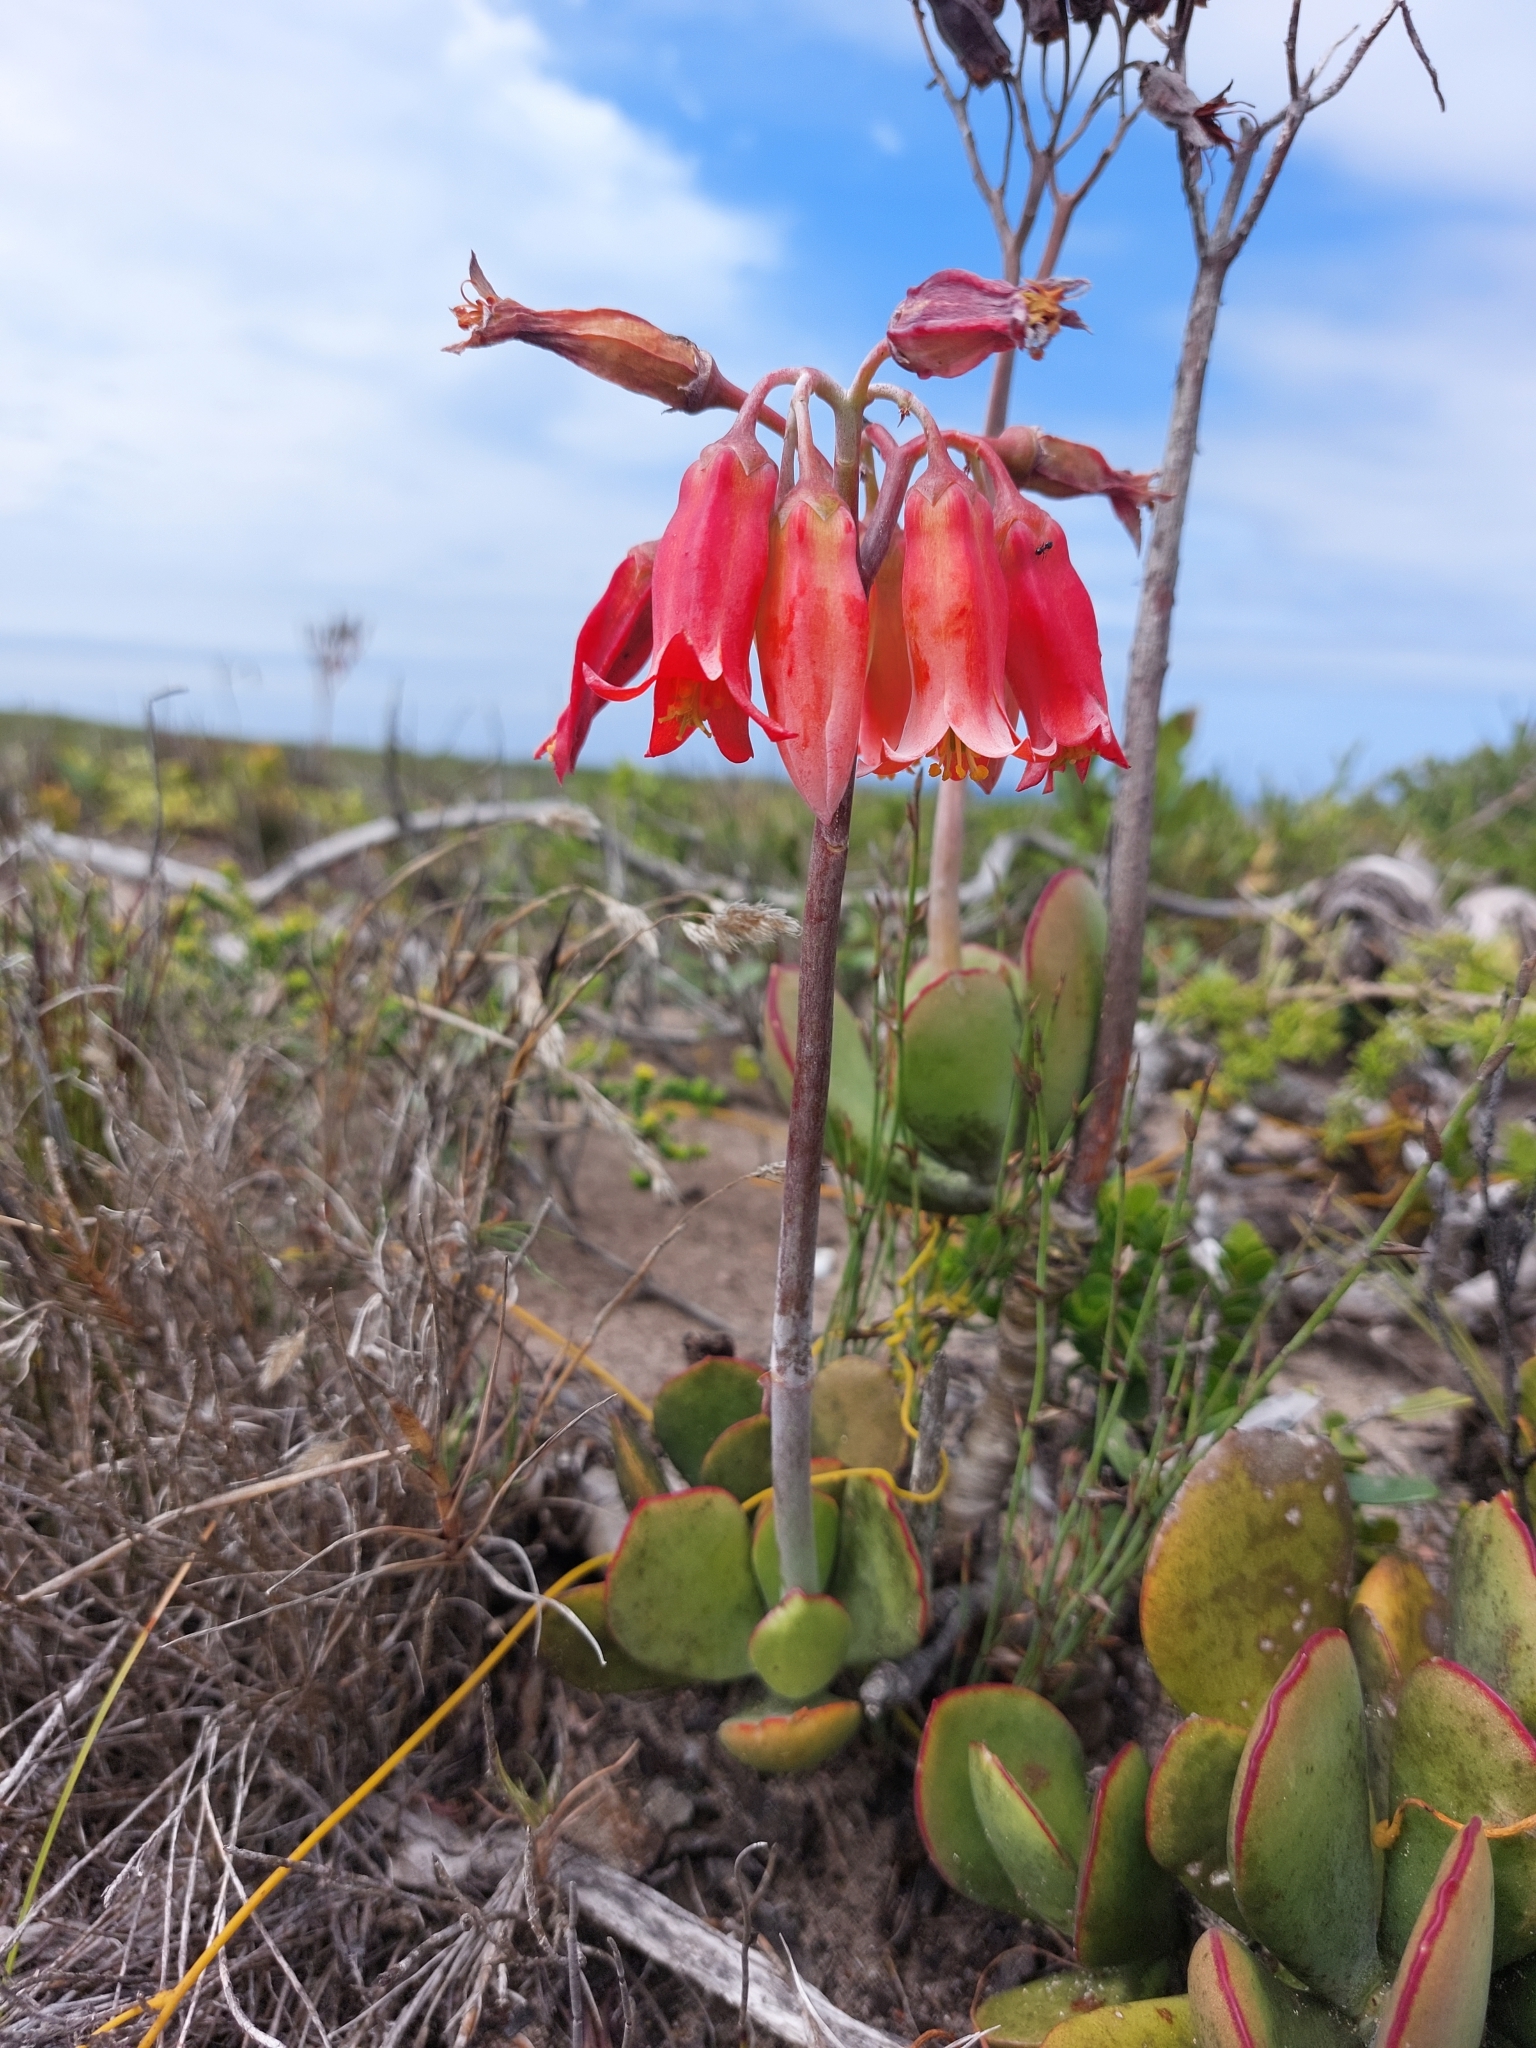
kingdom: Plantae
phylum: Tracheophyta
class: Magnoliopsida
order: Saxifragales
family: Crassulaceae
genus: Cotyledon
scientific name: Cotyledon orbiculata
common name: Pig's ear
